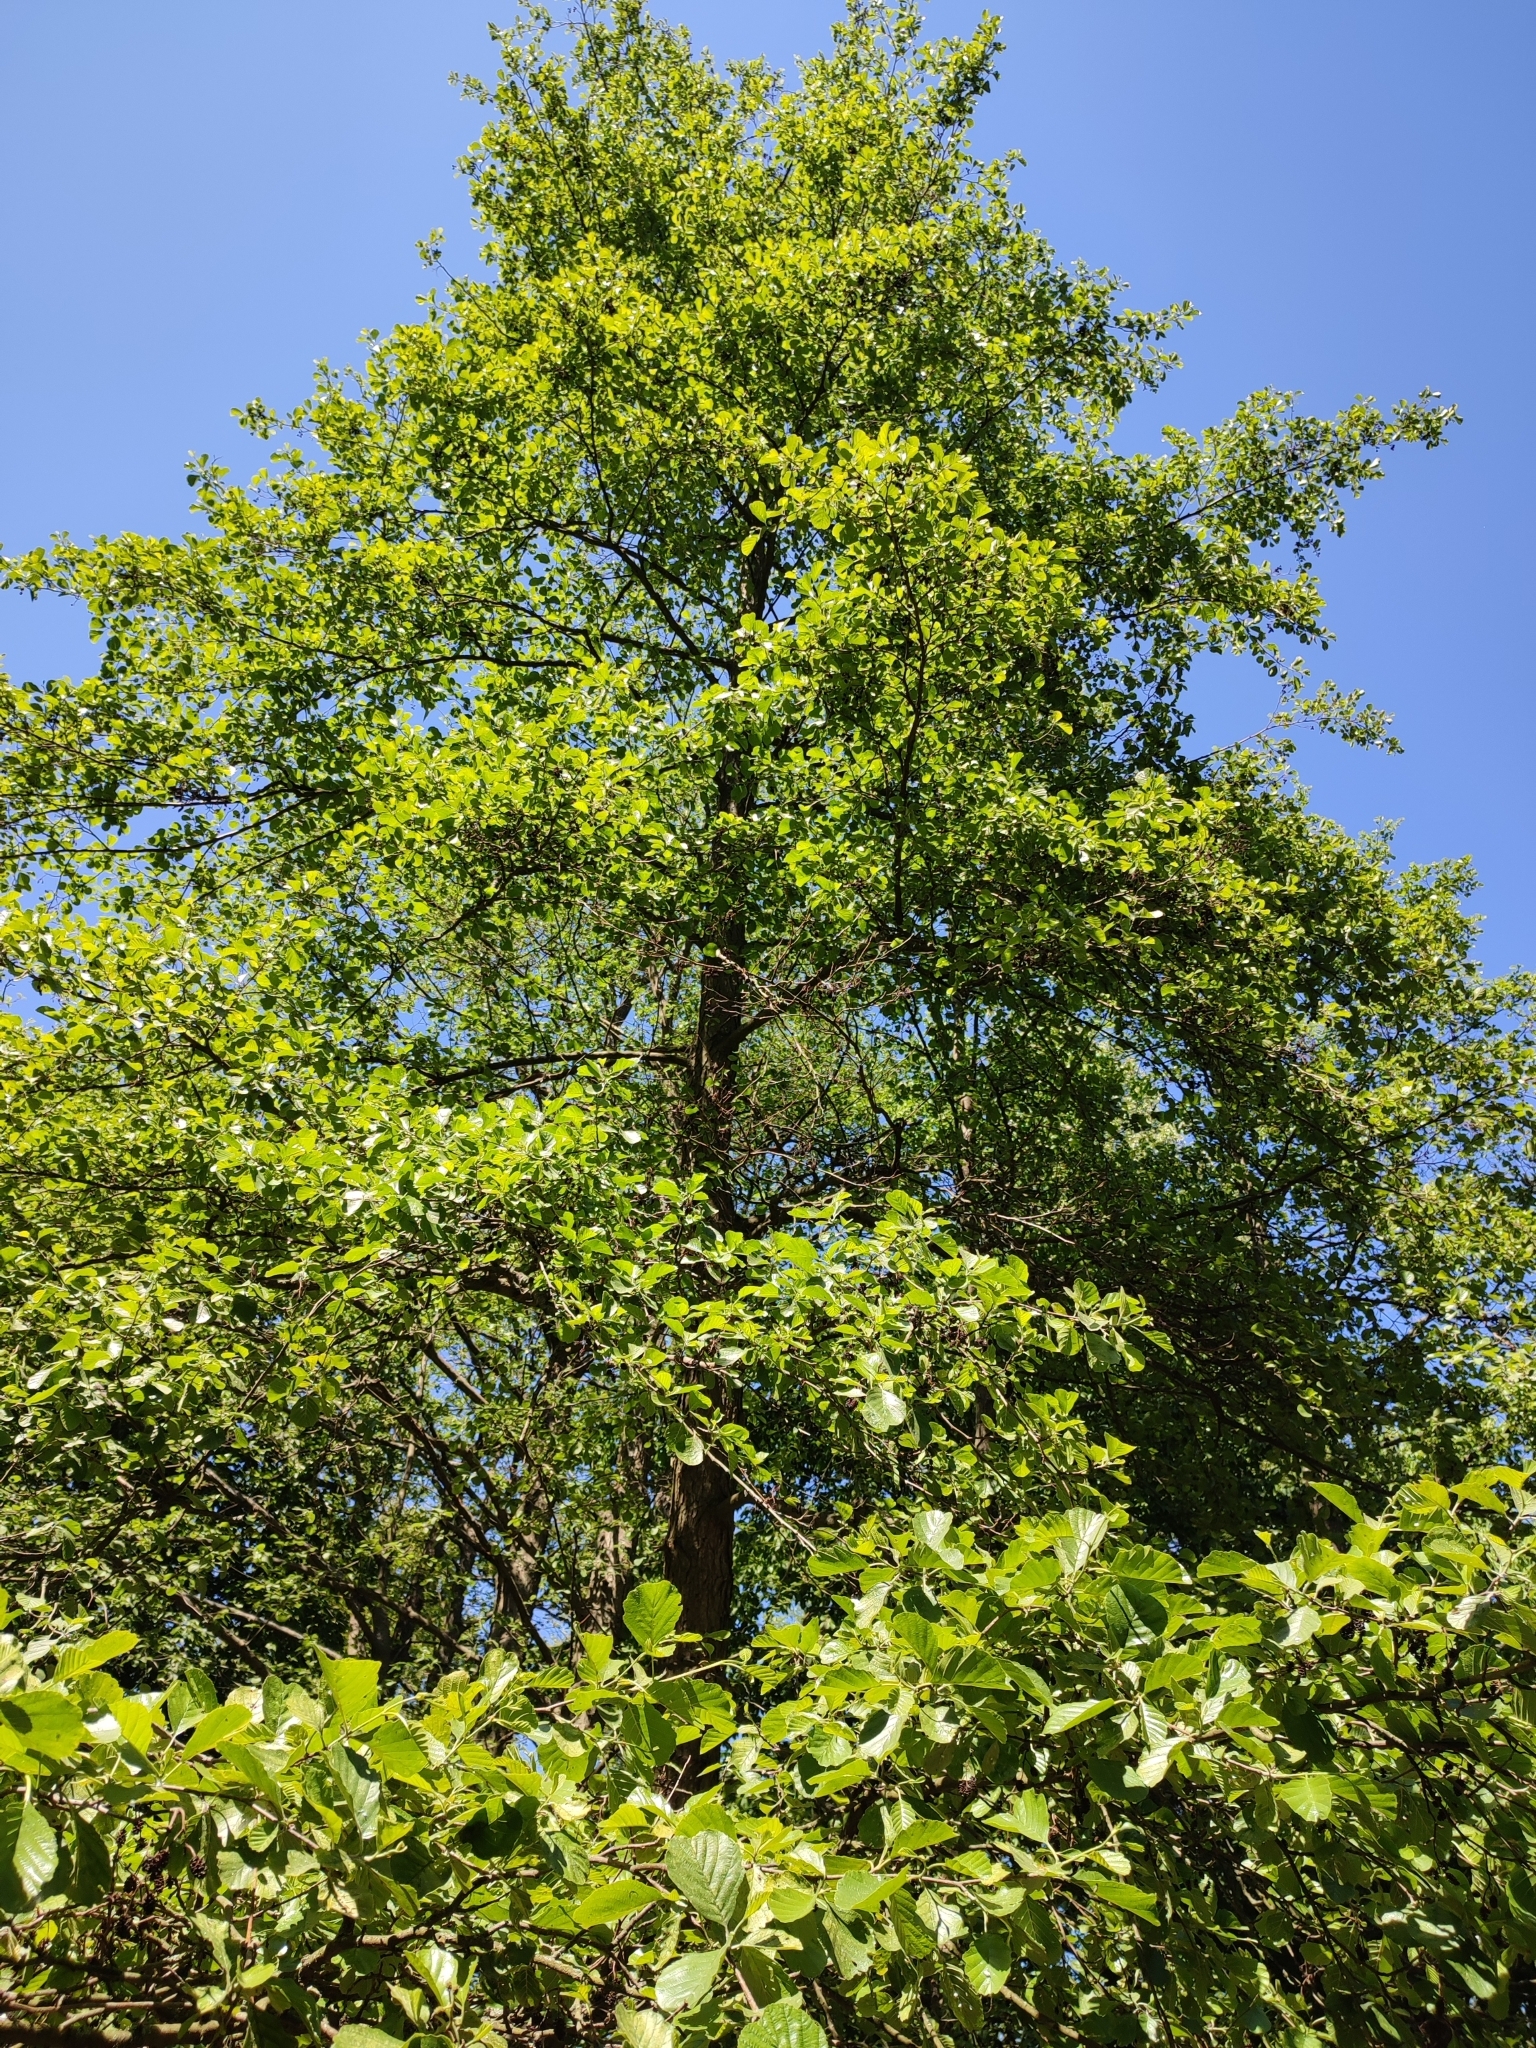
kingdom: Plantae
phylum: Tracheophyta
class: Magnoliopsida
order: Fagales
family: Betulaceae
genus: Alnus
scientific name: Alnus glutinosa
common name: Black alder
